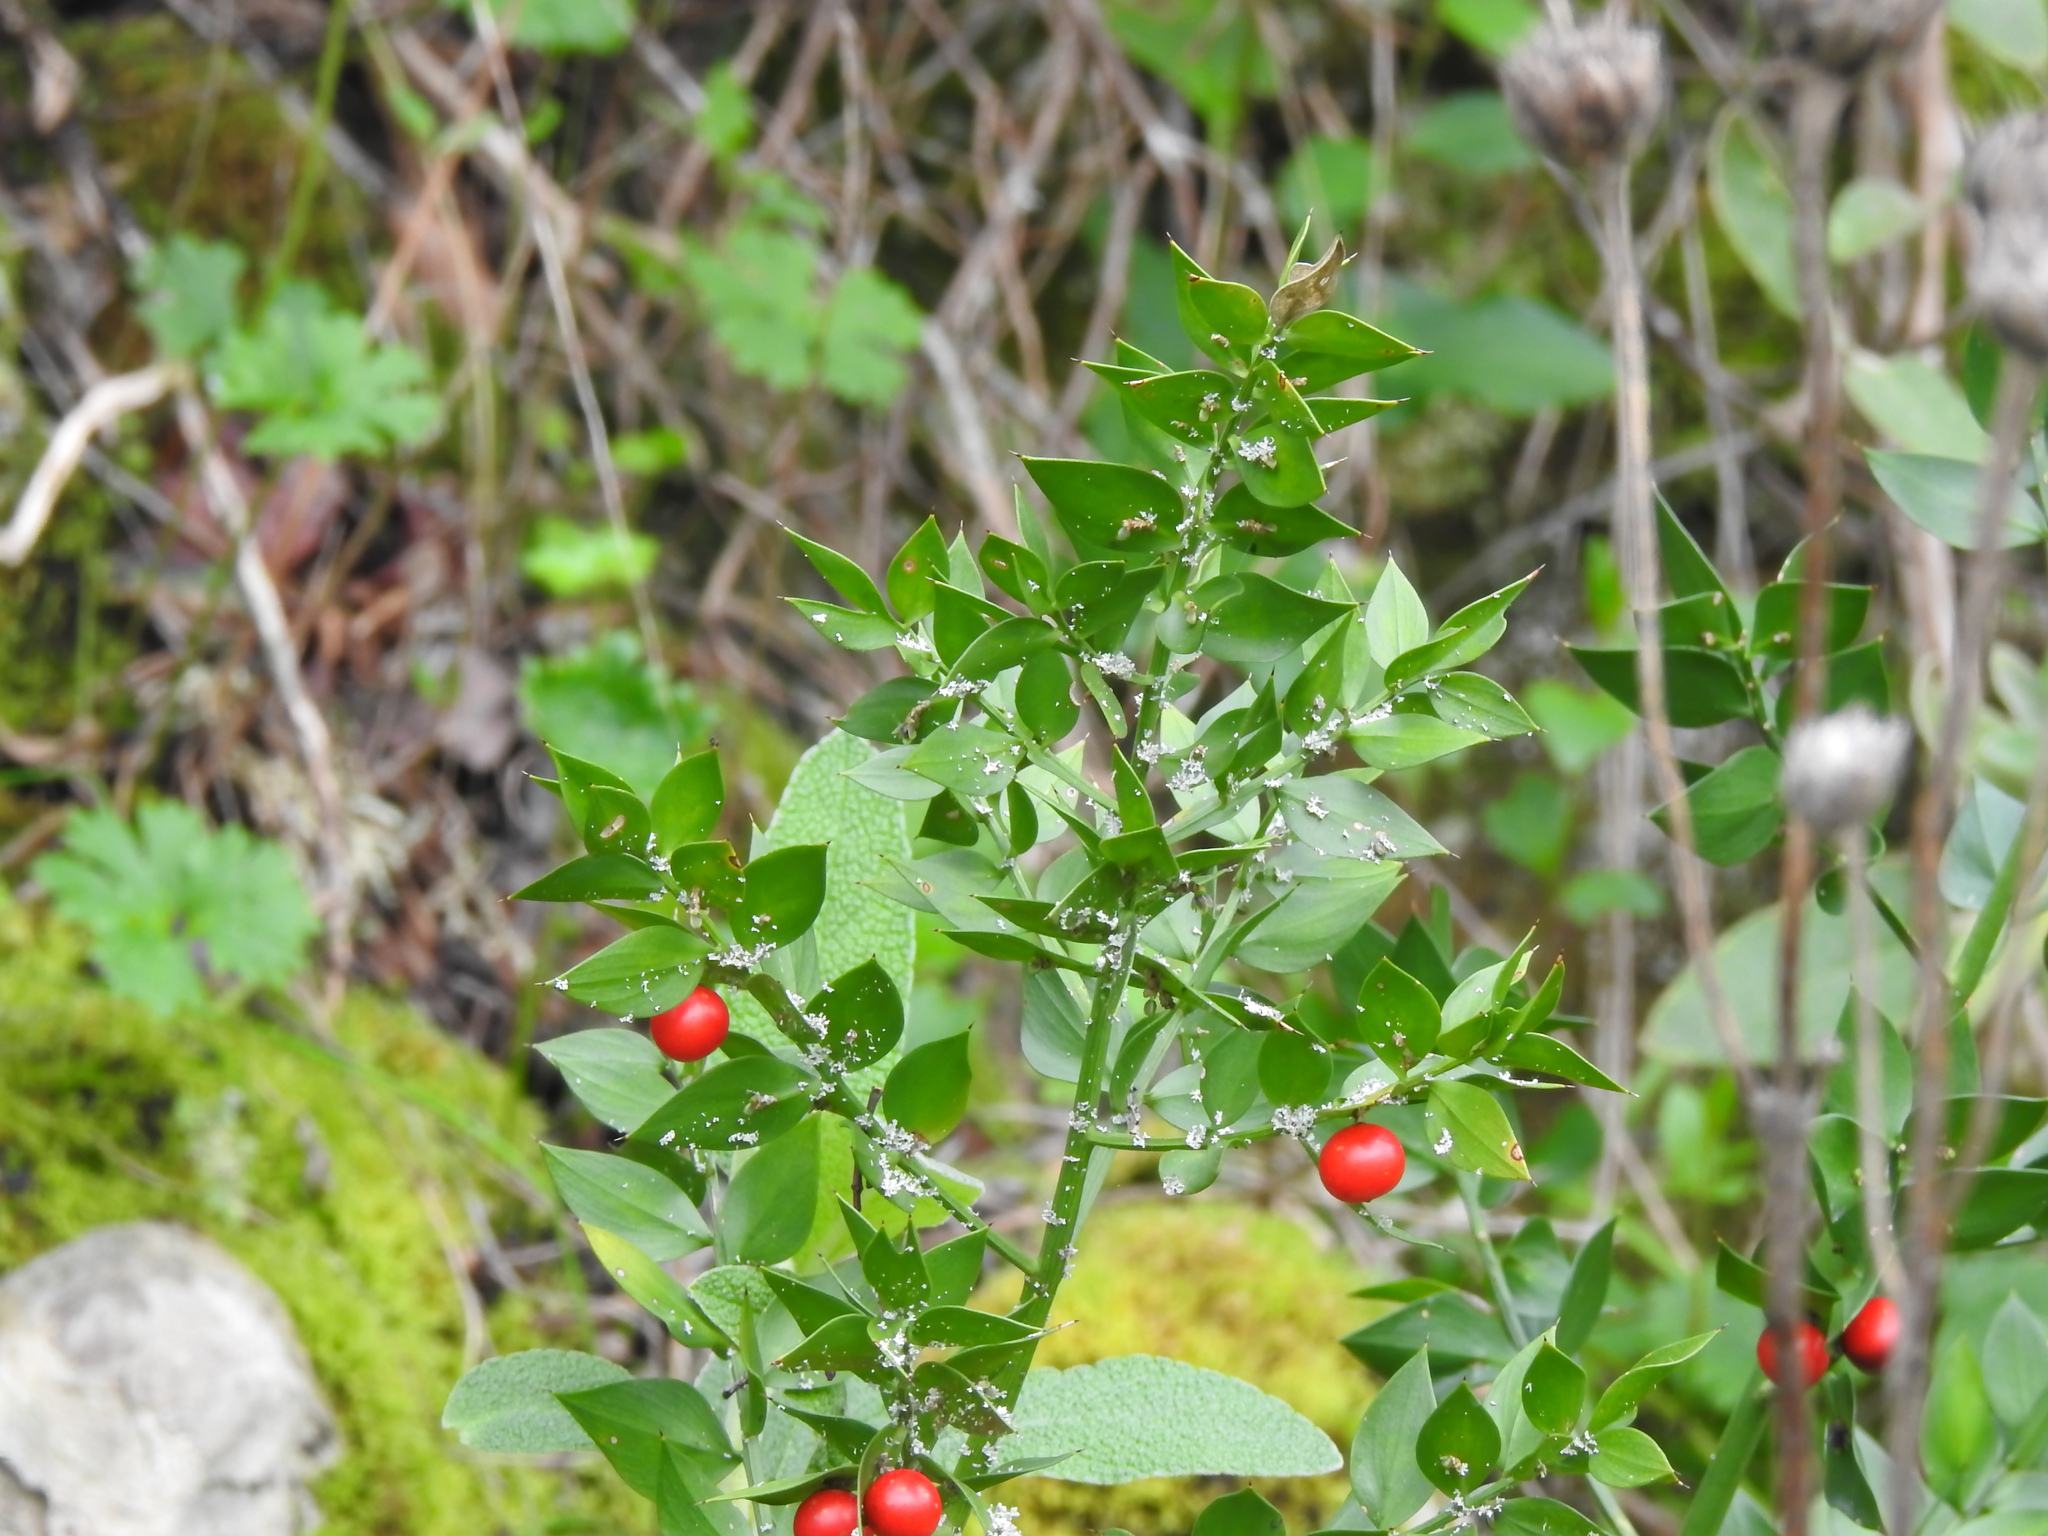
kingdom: Plantae
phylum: Tracheophyta
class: Liliopsida
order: Asparagales
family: Asparagaceae
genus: Ruscus
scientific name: Ruscus aculeatus
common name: Butcher's-broom
